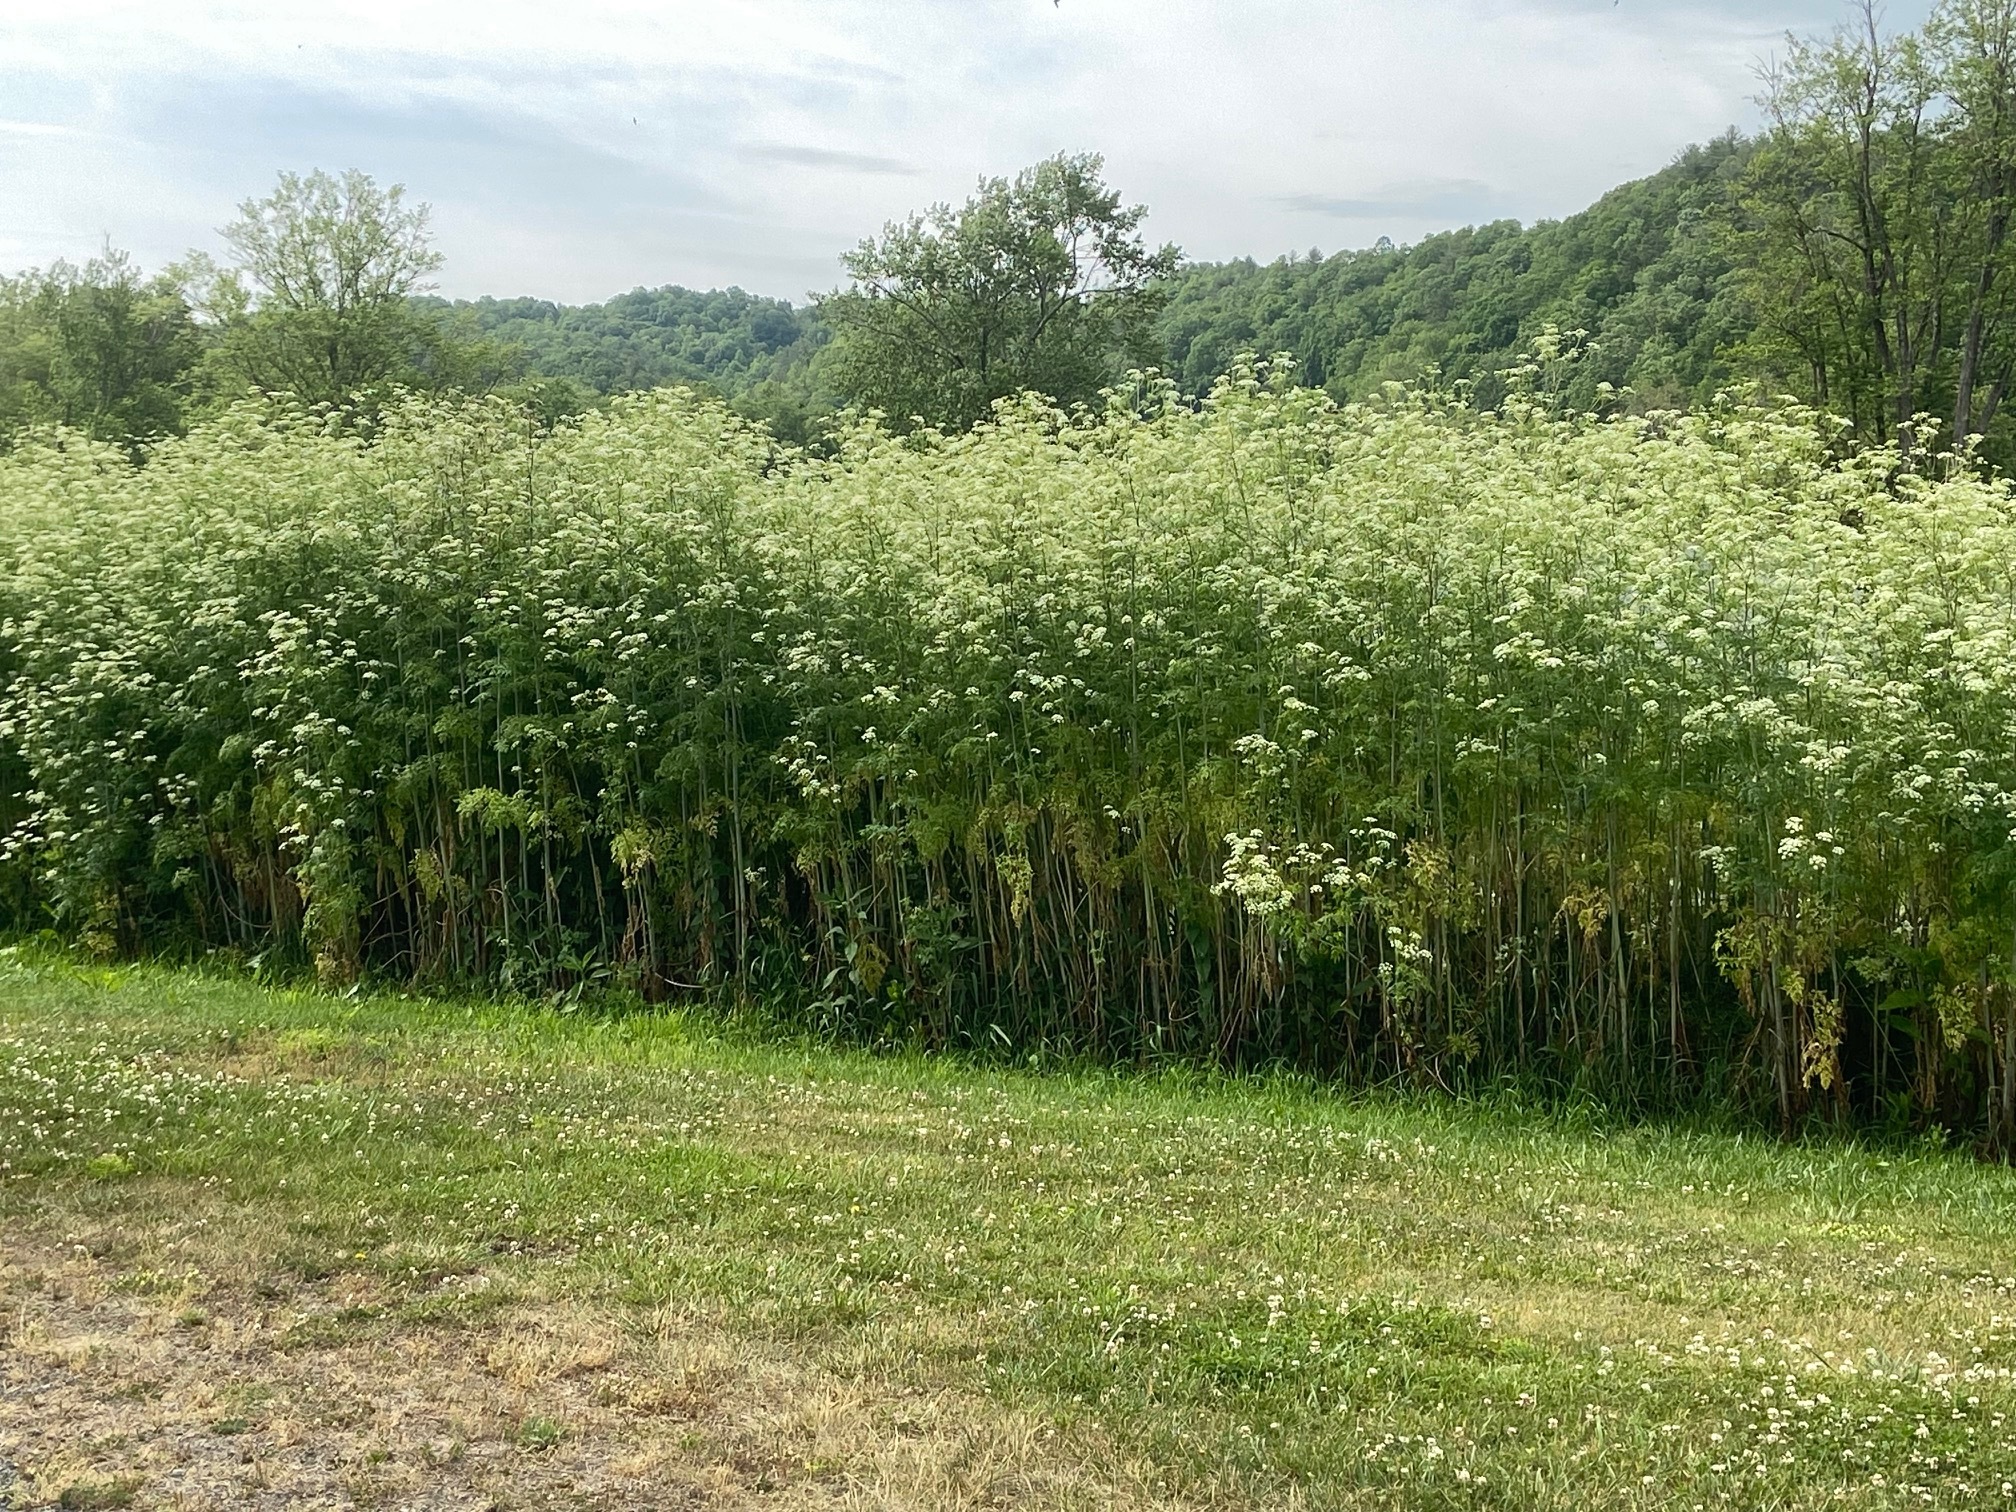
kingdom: Plantae
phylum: Tracheophyta
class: Magnoliopsida
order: Apiales
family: Apiaceae
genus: Conium
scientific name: Conium maculatum
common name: Hemlock
